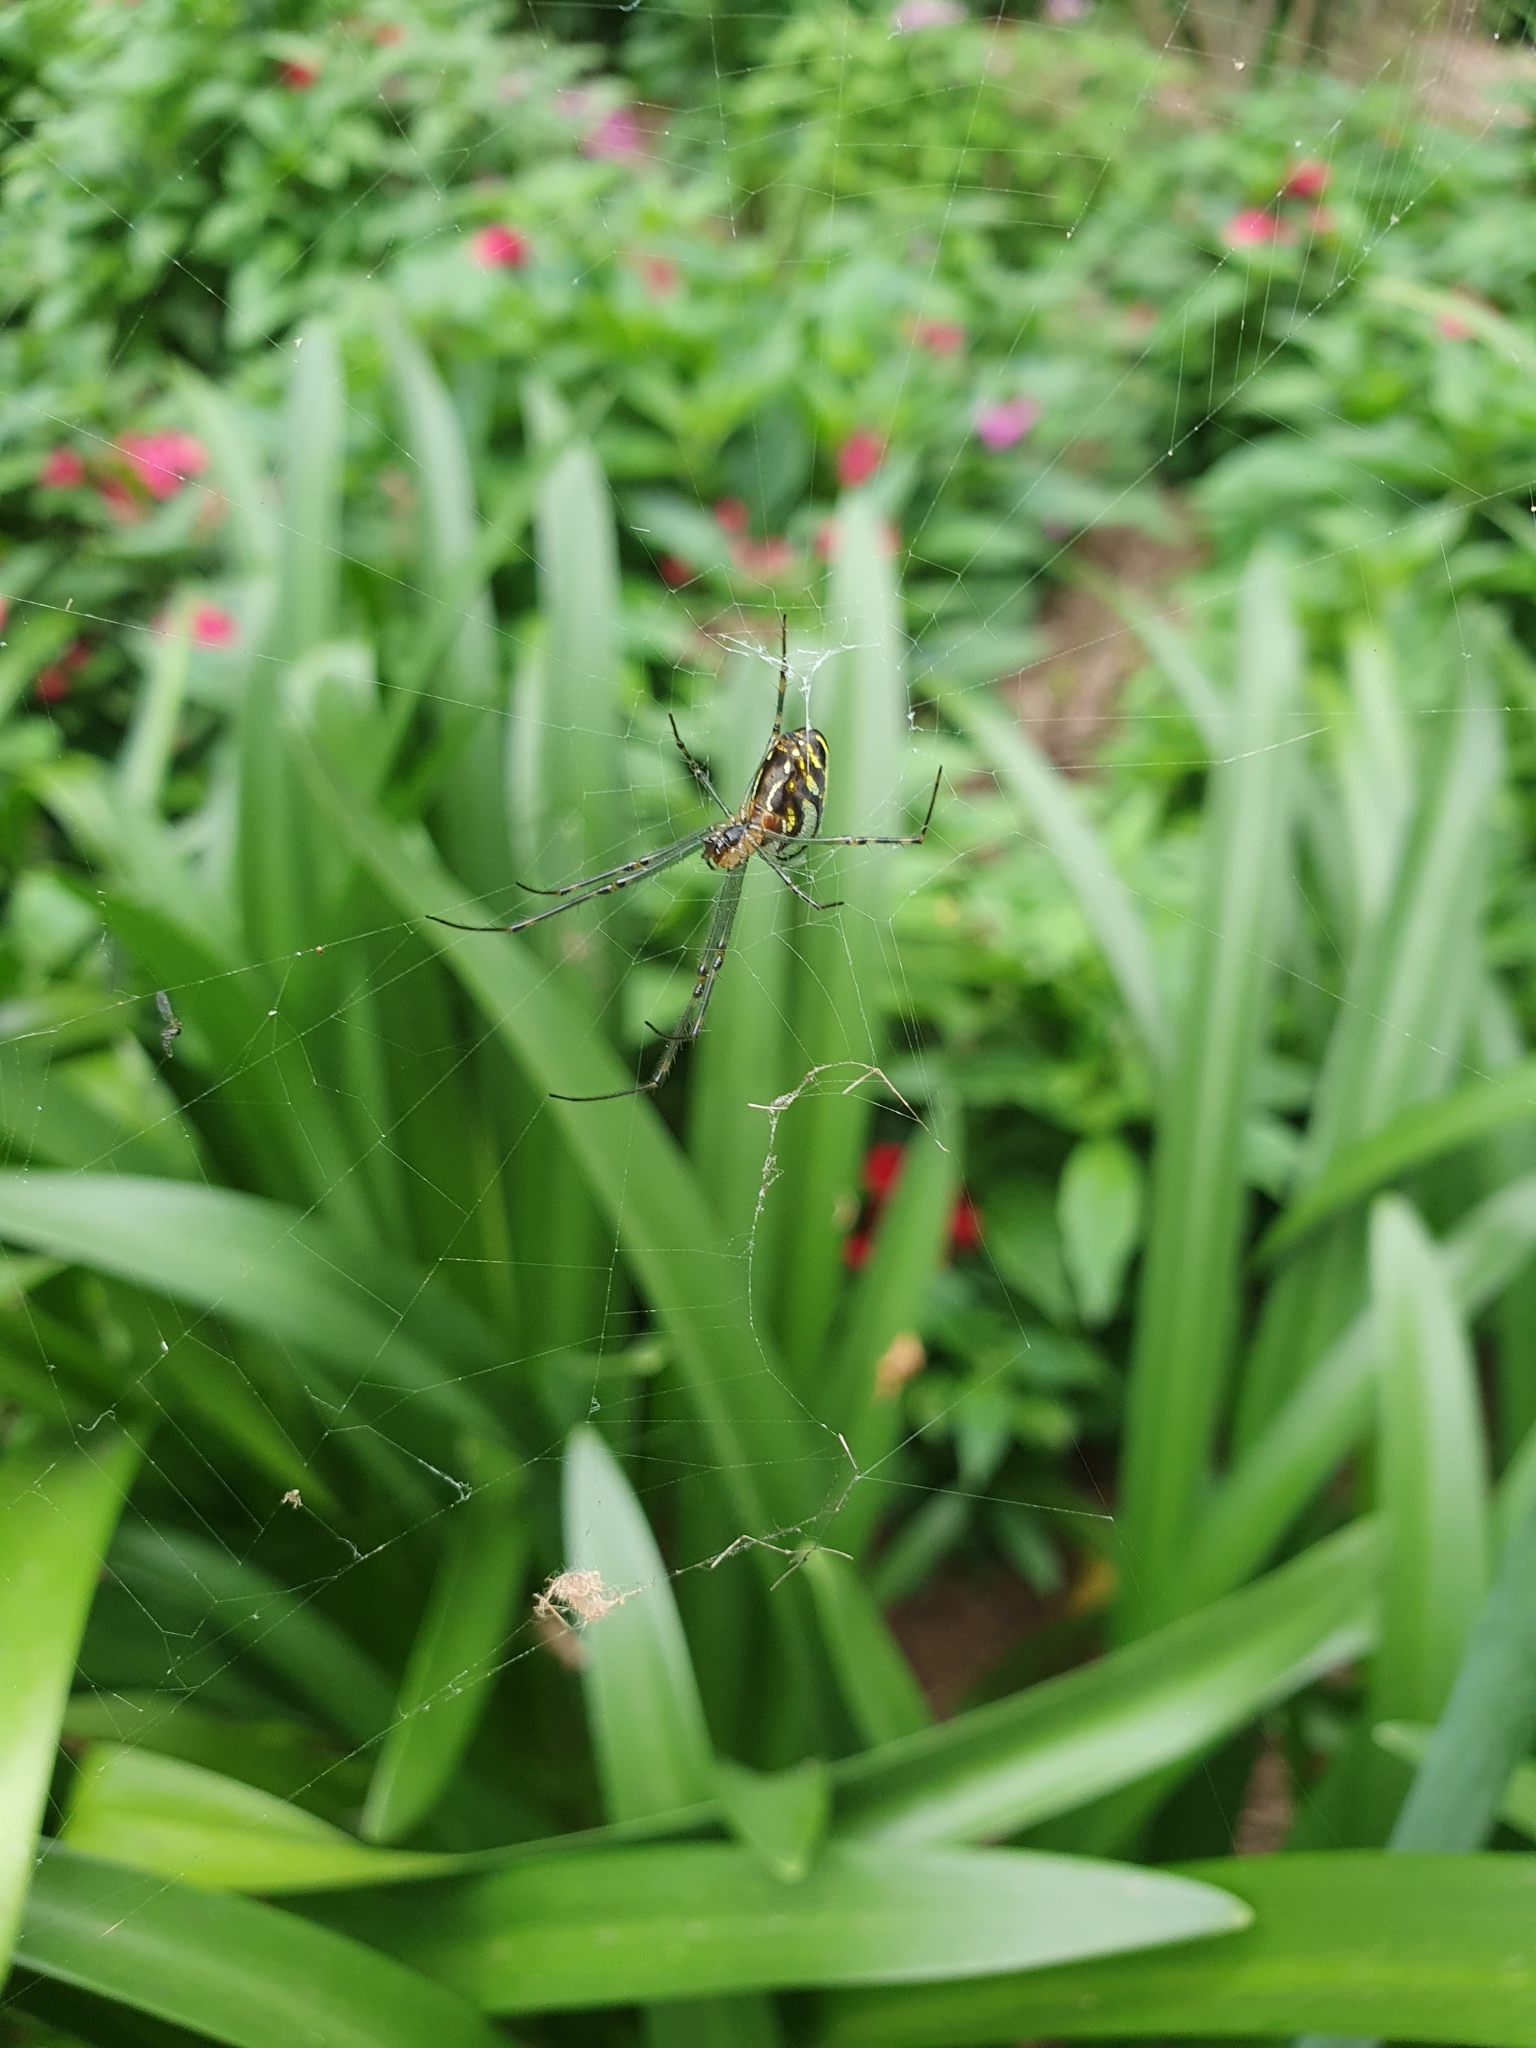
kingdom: Animalia
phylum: Arthropoda
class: Arachnida
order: Araneae
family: Tetragnathidae
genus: Leucauge
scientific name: Leucauge dromedaria
